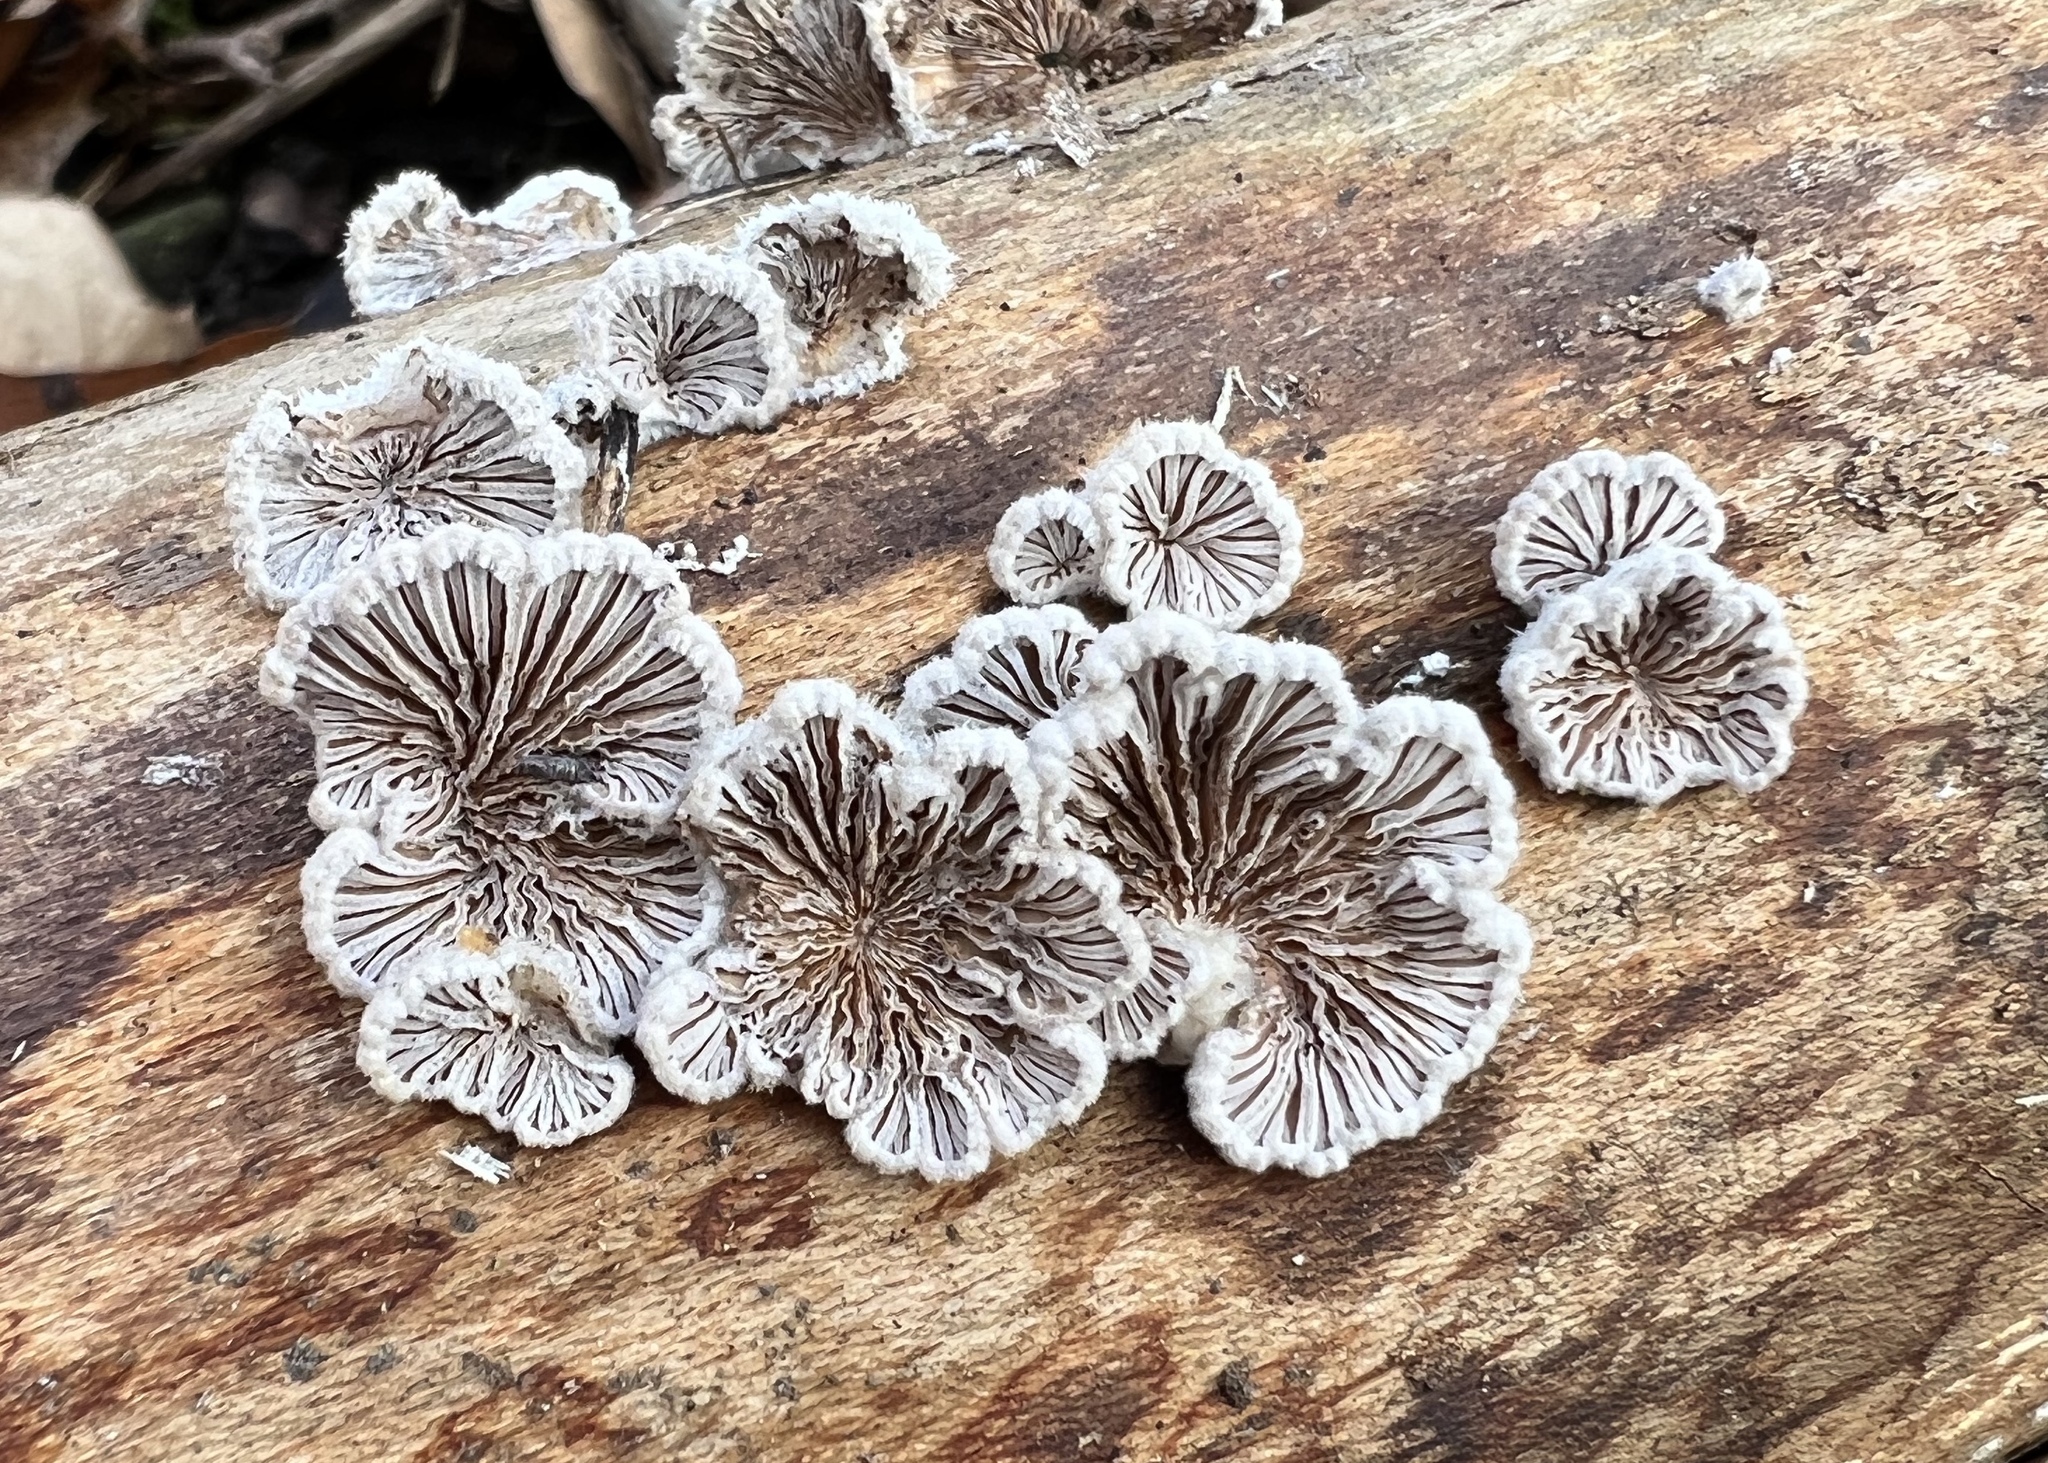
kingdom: Fungi
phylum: Basidiomycota
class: Agaricomycetes
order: Agaricales
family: Schizophyllaceae
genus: Schizophyllum
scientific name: Schizophyllum commune
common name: Common porecrust
